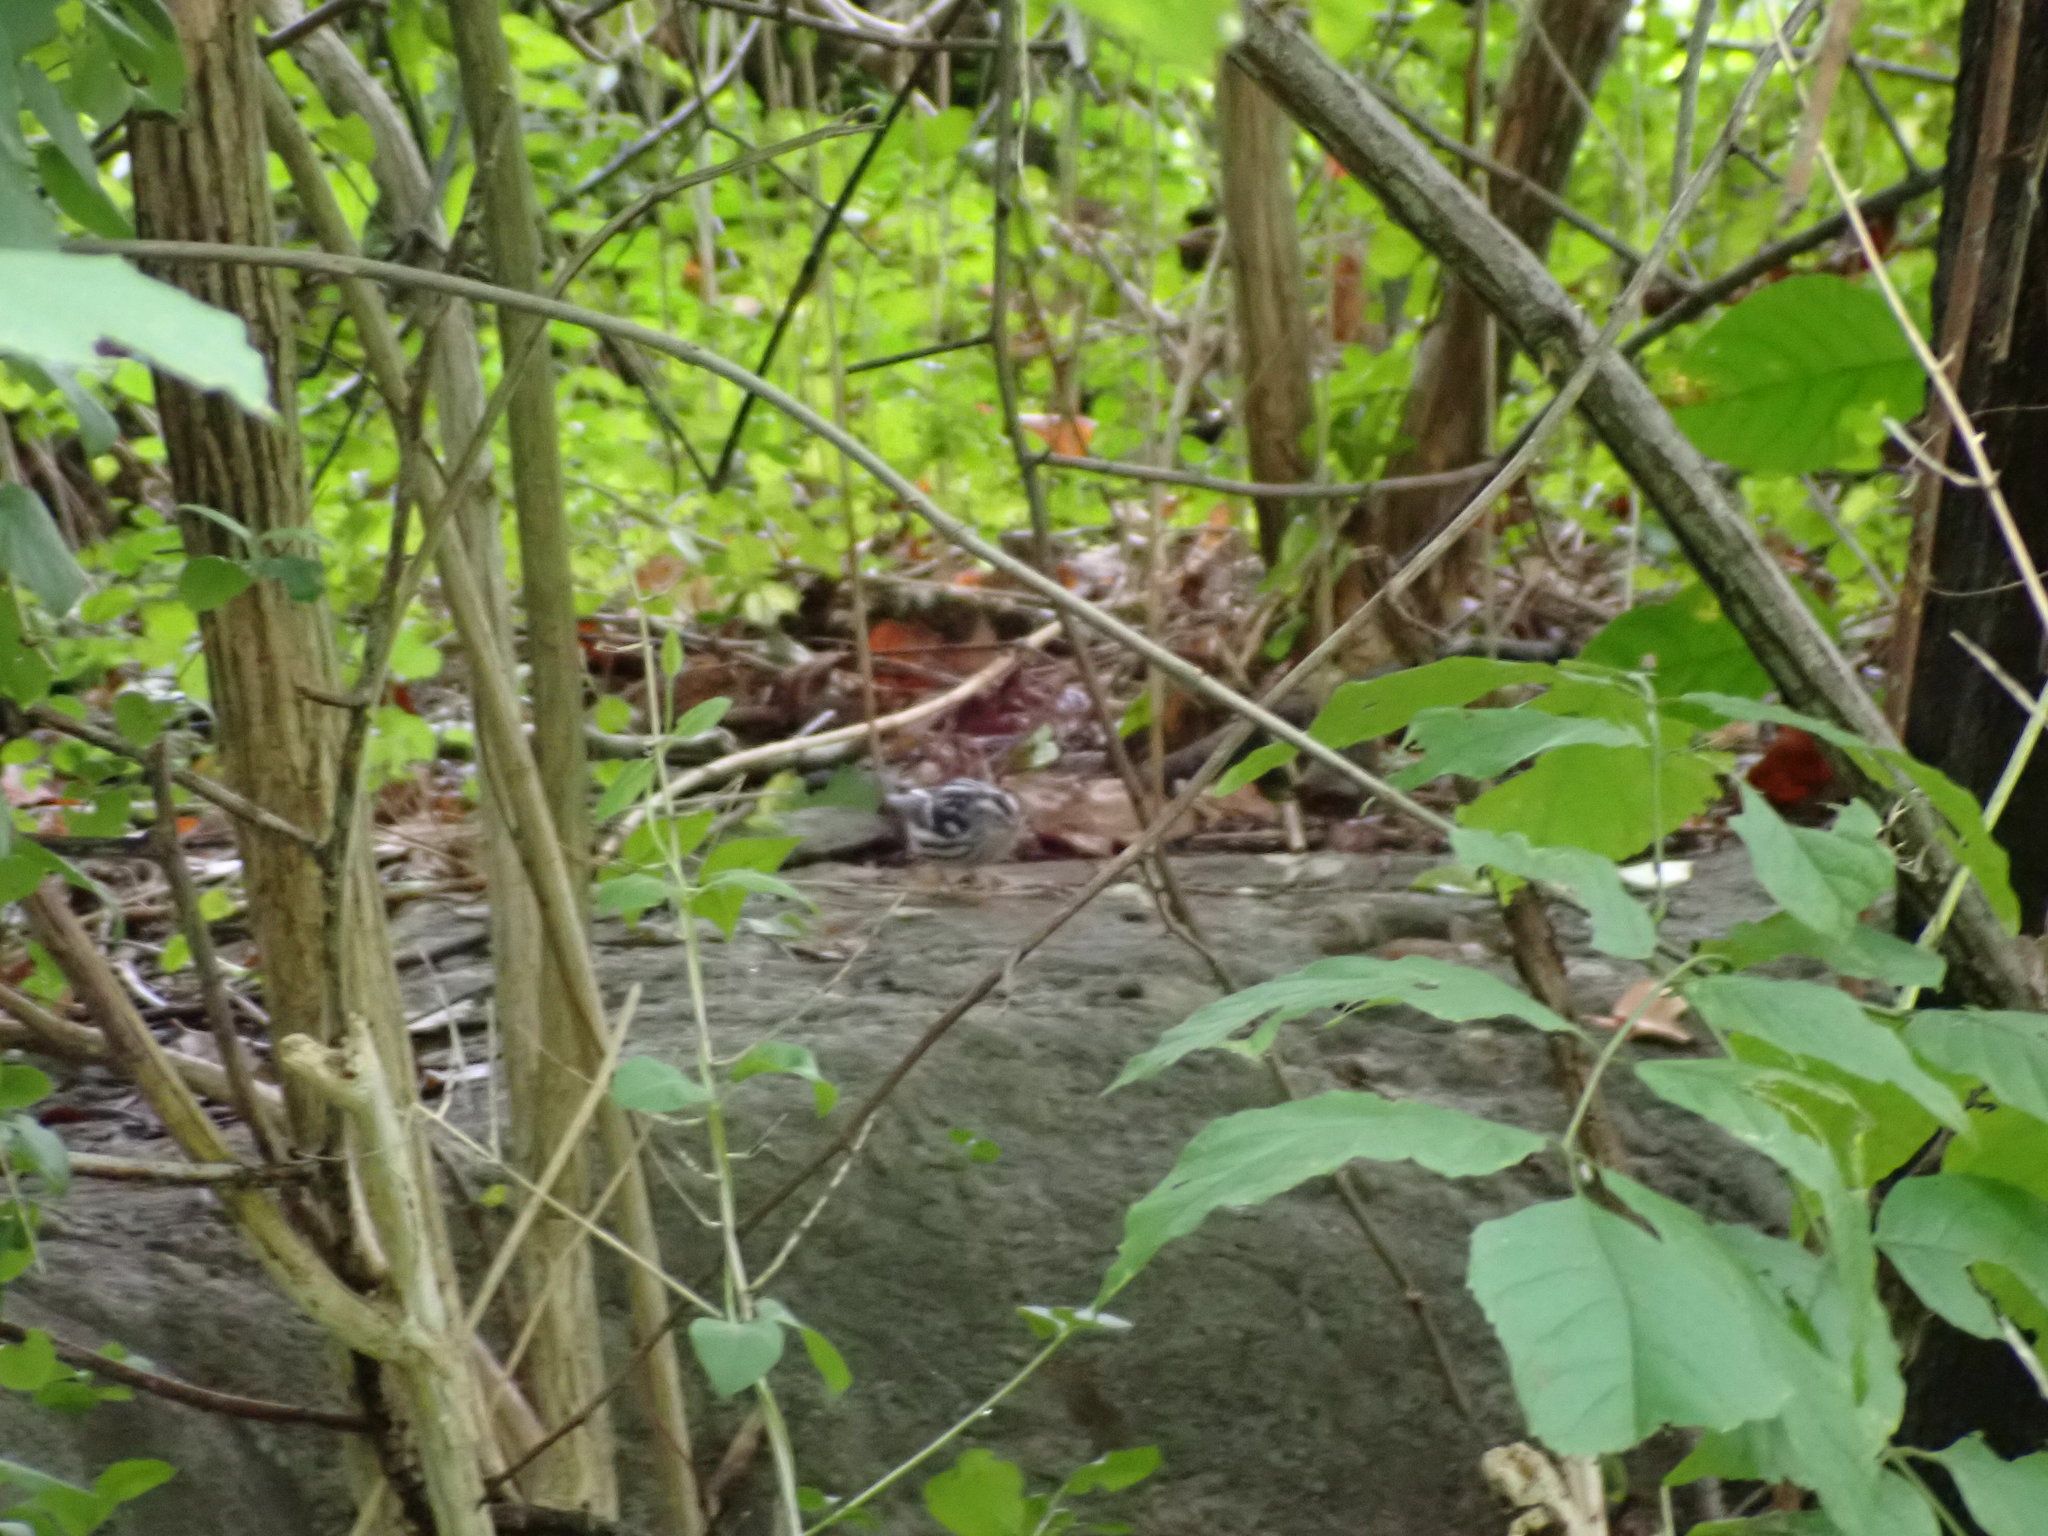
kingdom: Animalia
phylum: Chordata
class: Aves
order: Passeriformes
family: Parulidae
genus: Mniotilta
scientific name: Mniotilta varia
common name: Black-and-white warbler
